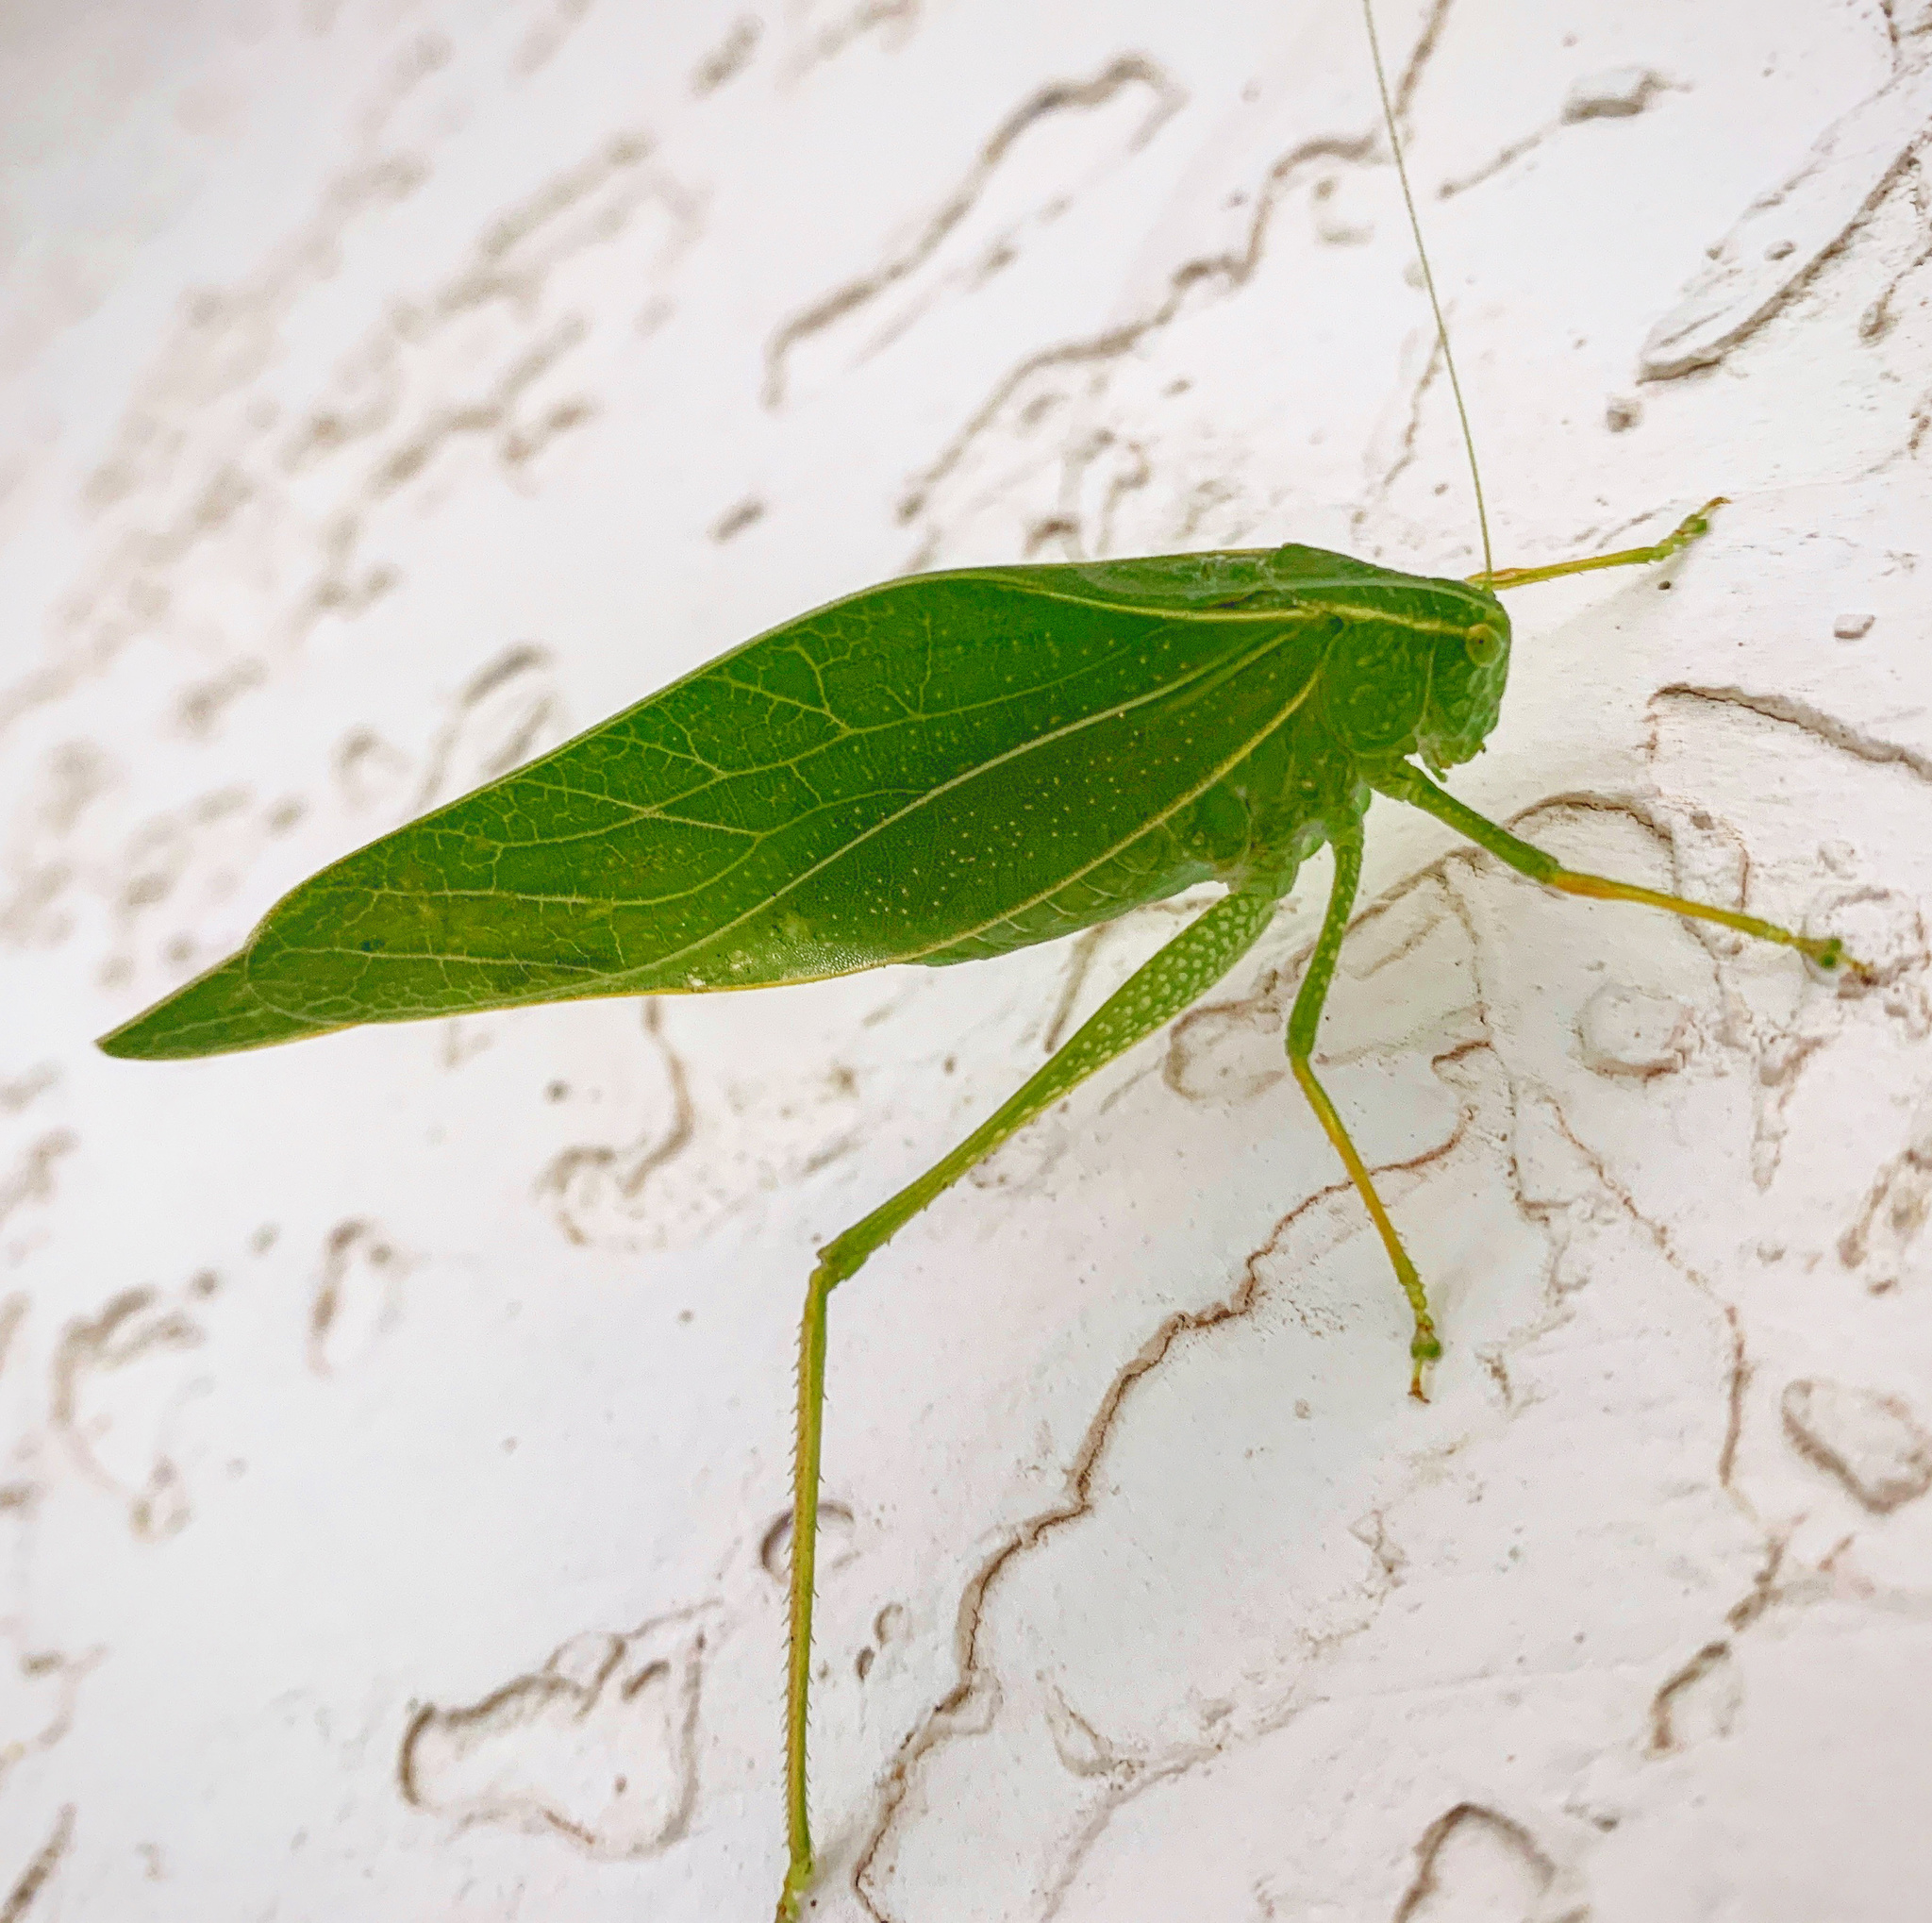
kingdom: Animalia
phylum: Arthropoda
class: Insecta
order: Orthoptera
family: Tettigoniidae
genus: Microcentrum
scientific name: Microcentrum rhombifolium
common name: Broad-winged katydid
